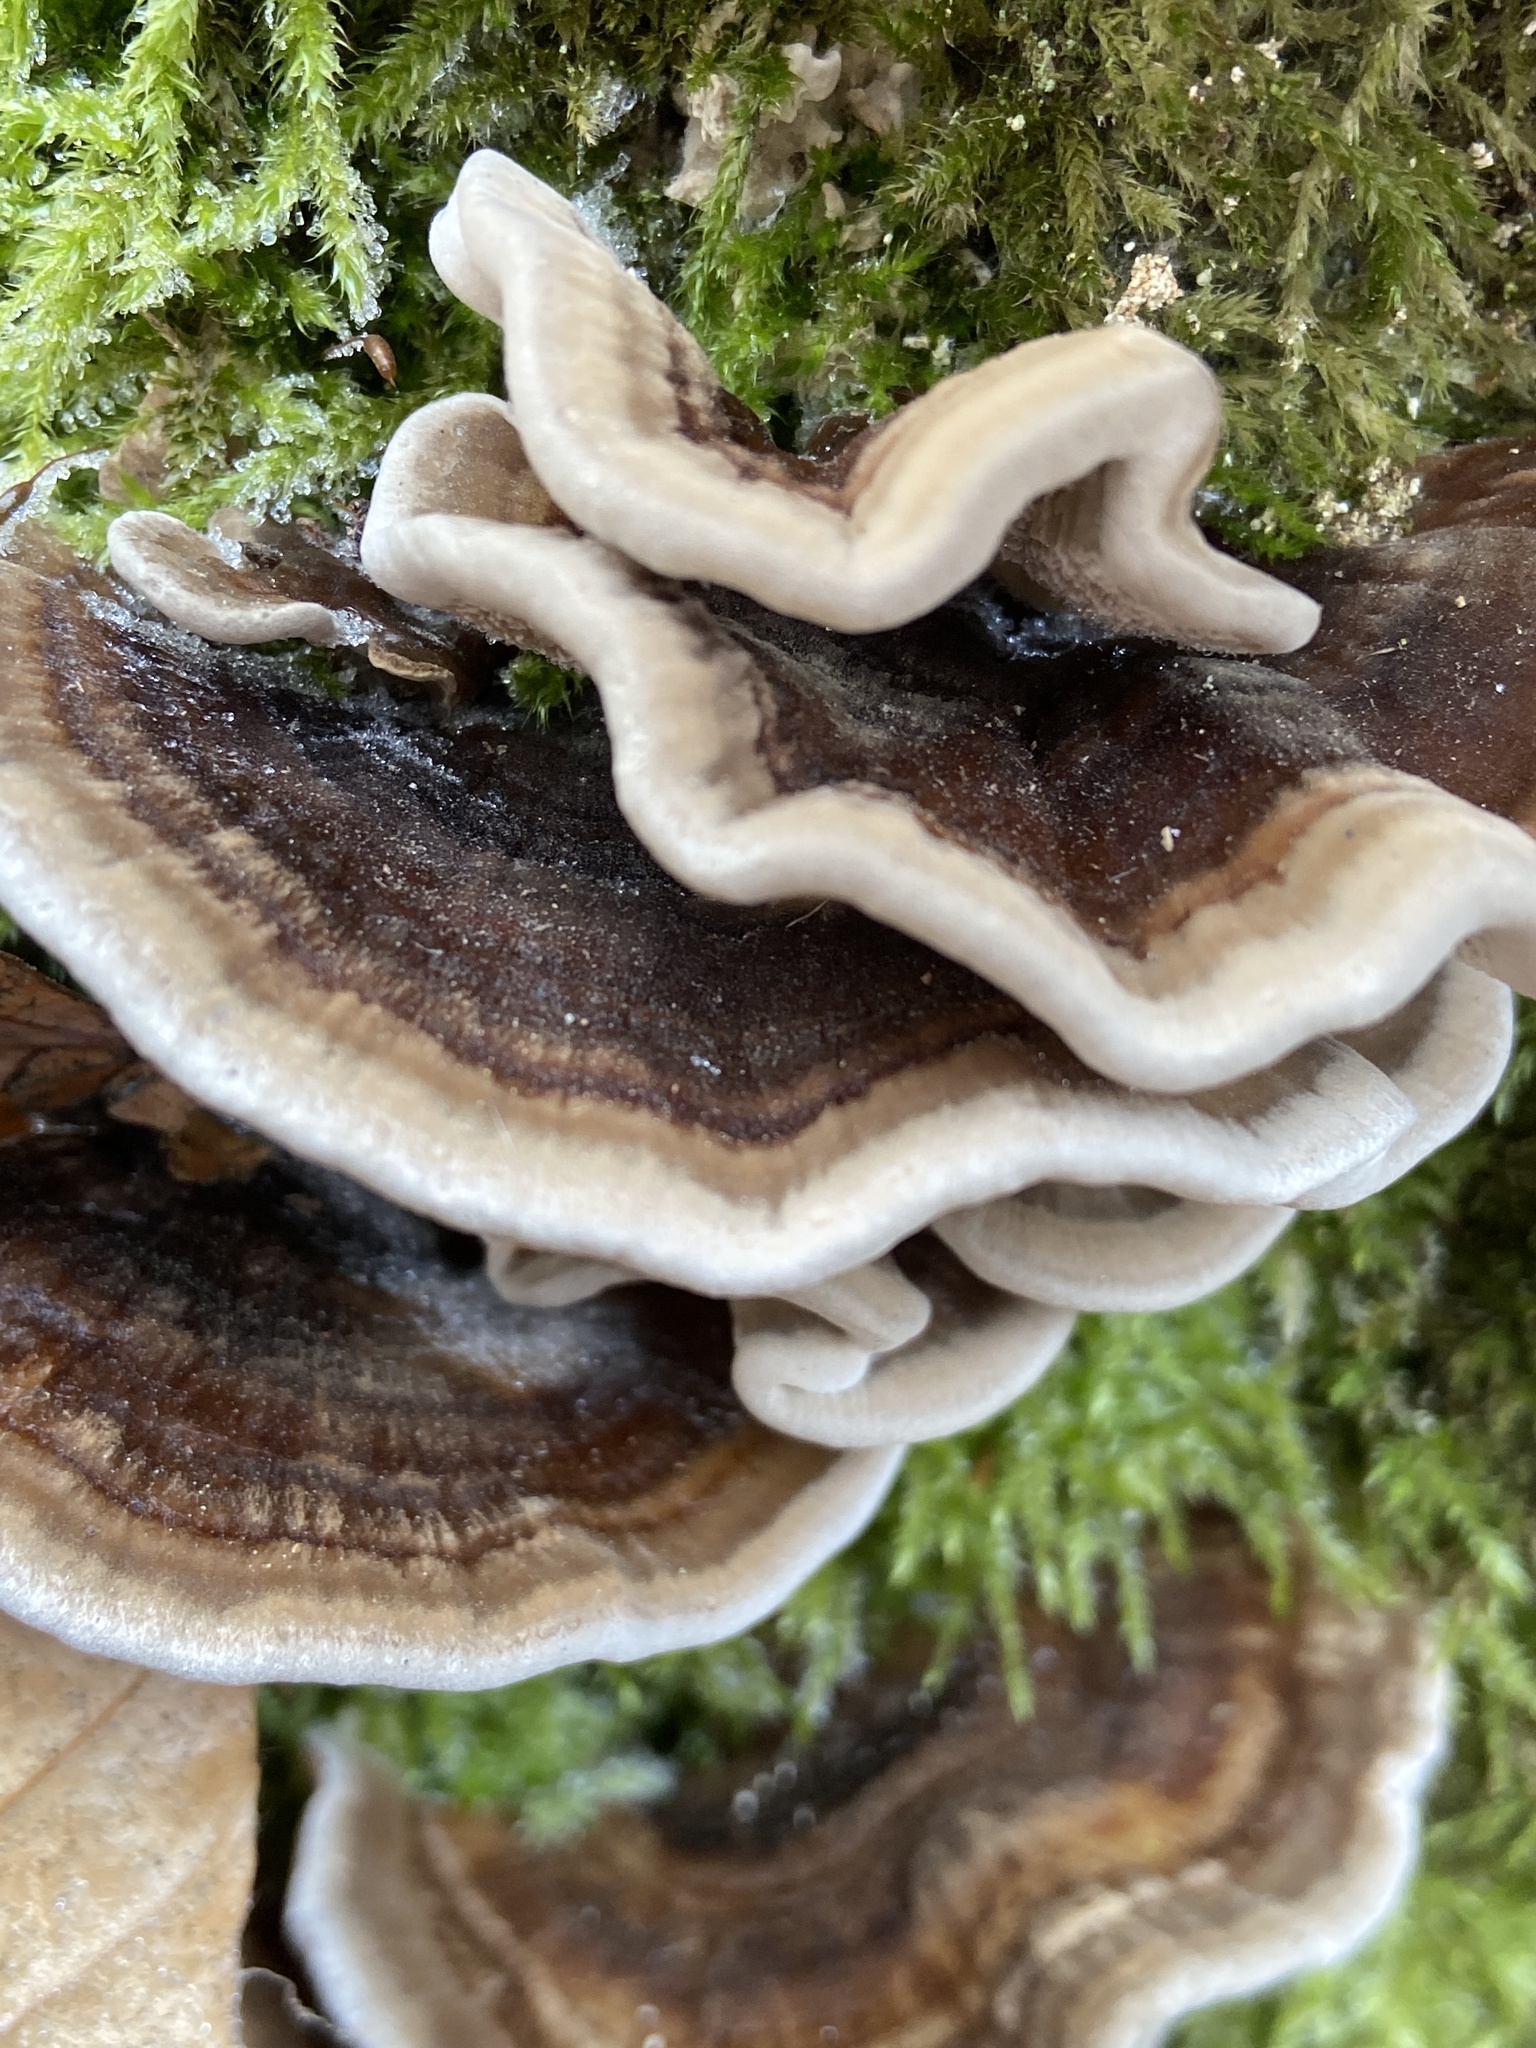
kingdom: Fungi
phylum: Basidiomycota
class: Agaricomycetes
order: Polyporales
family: Polyporaceae
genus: Trametes
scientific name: Trametes versicolor
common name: Turkeytail
